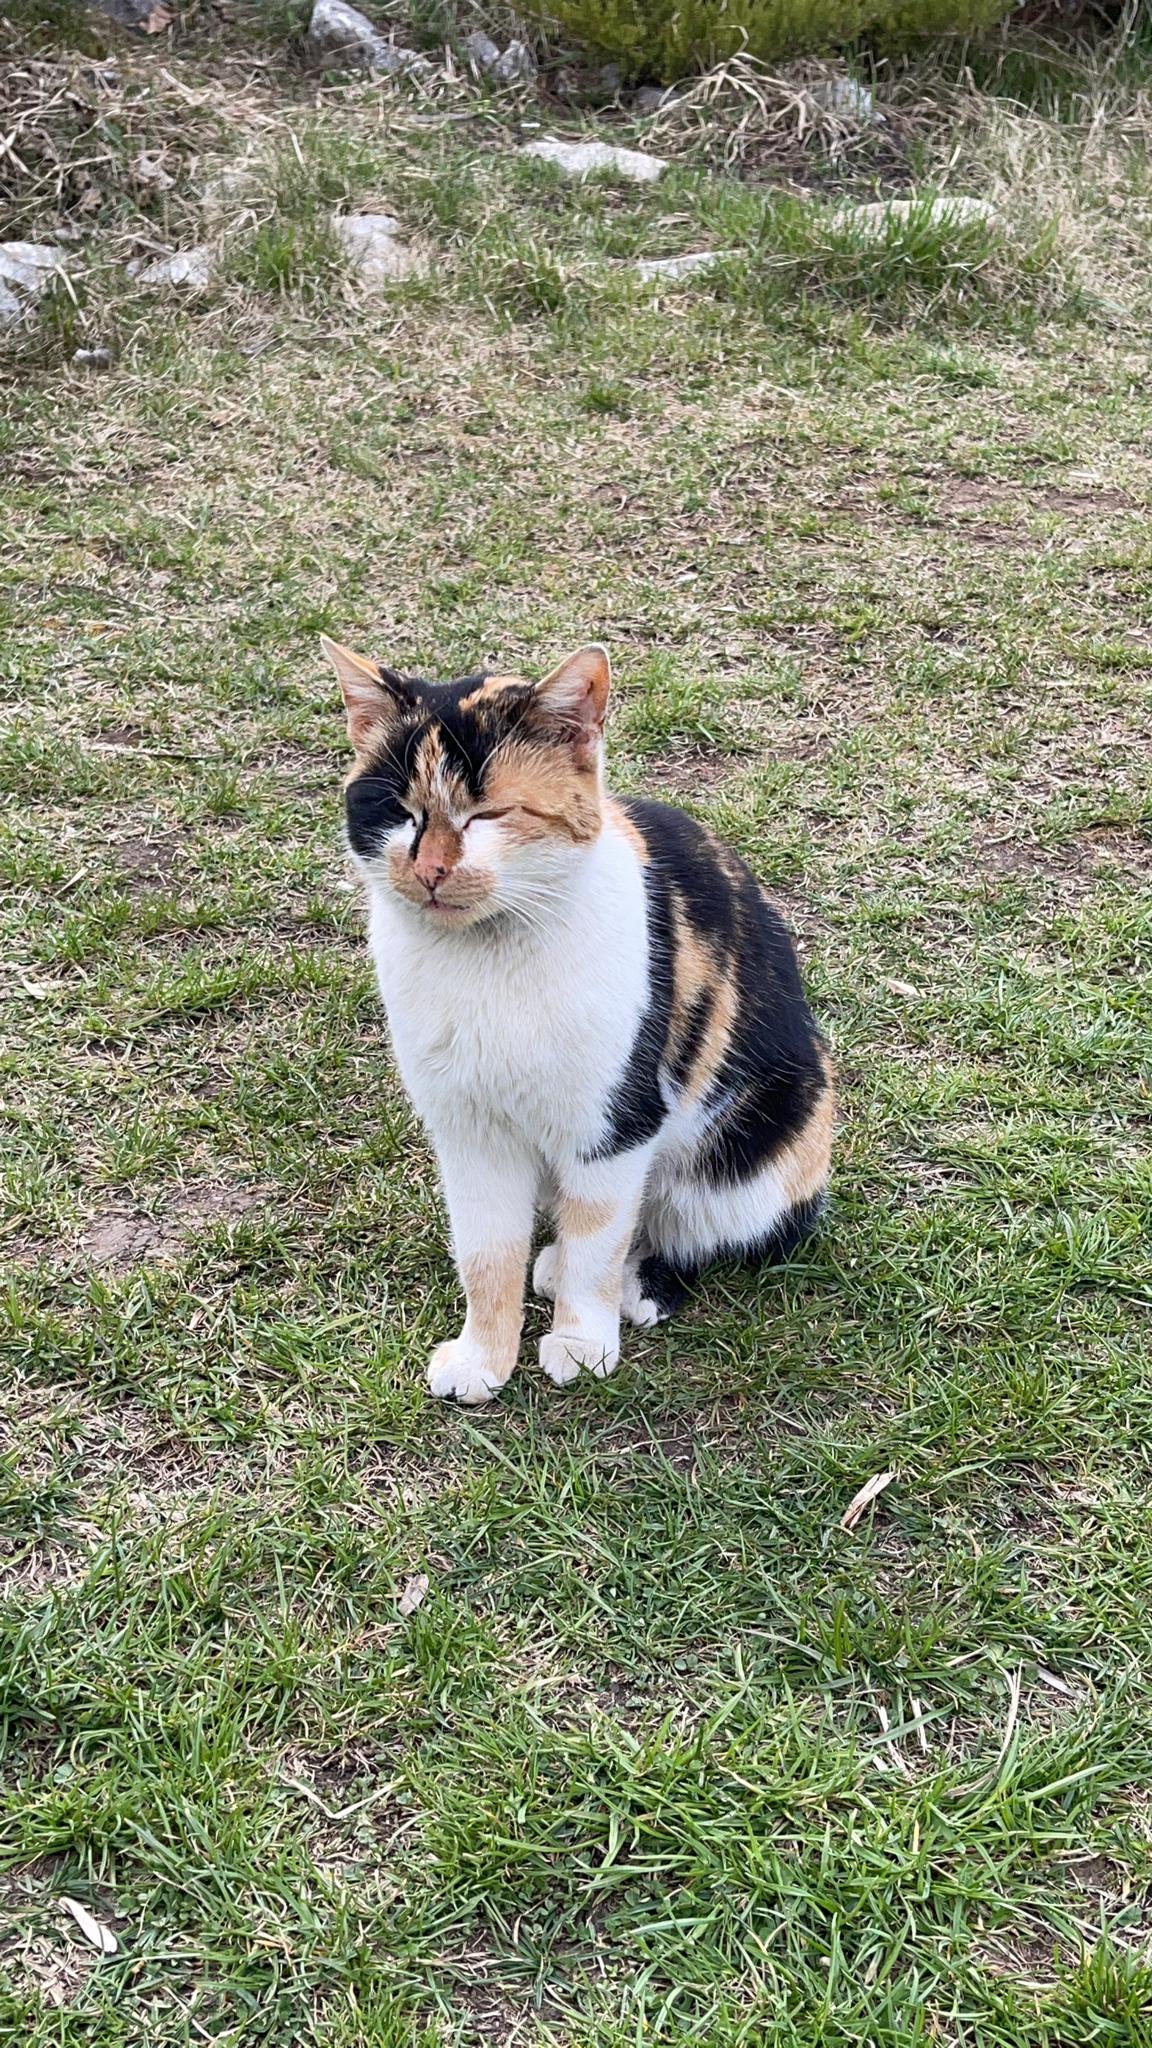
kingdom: Animalia
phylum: Chordata
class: Mammalia
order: Carnivora
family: Felidae
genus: Felis
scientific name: Felis catus
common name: Domestic cat
